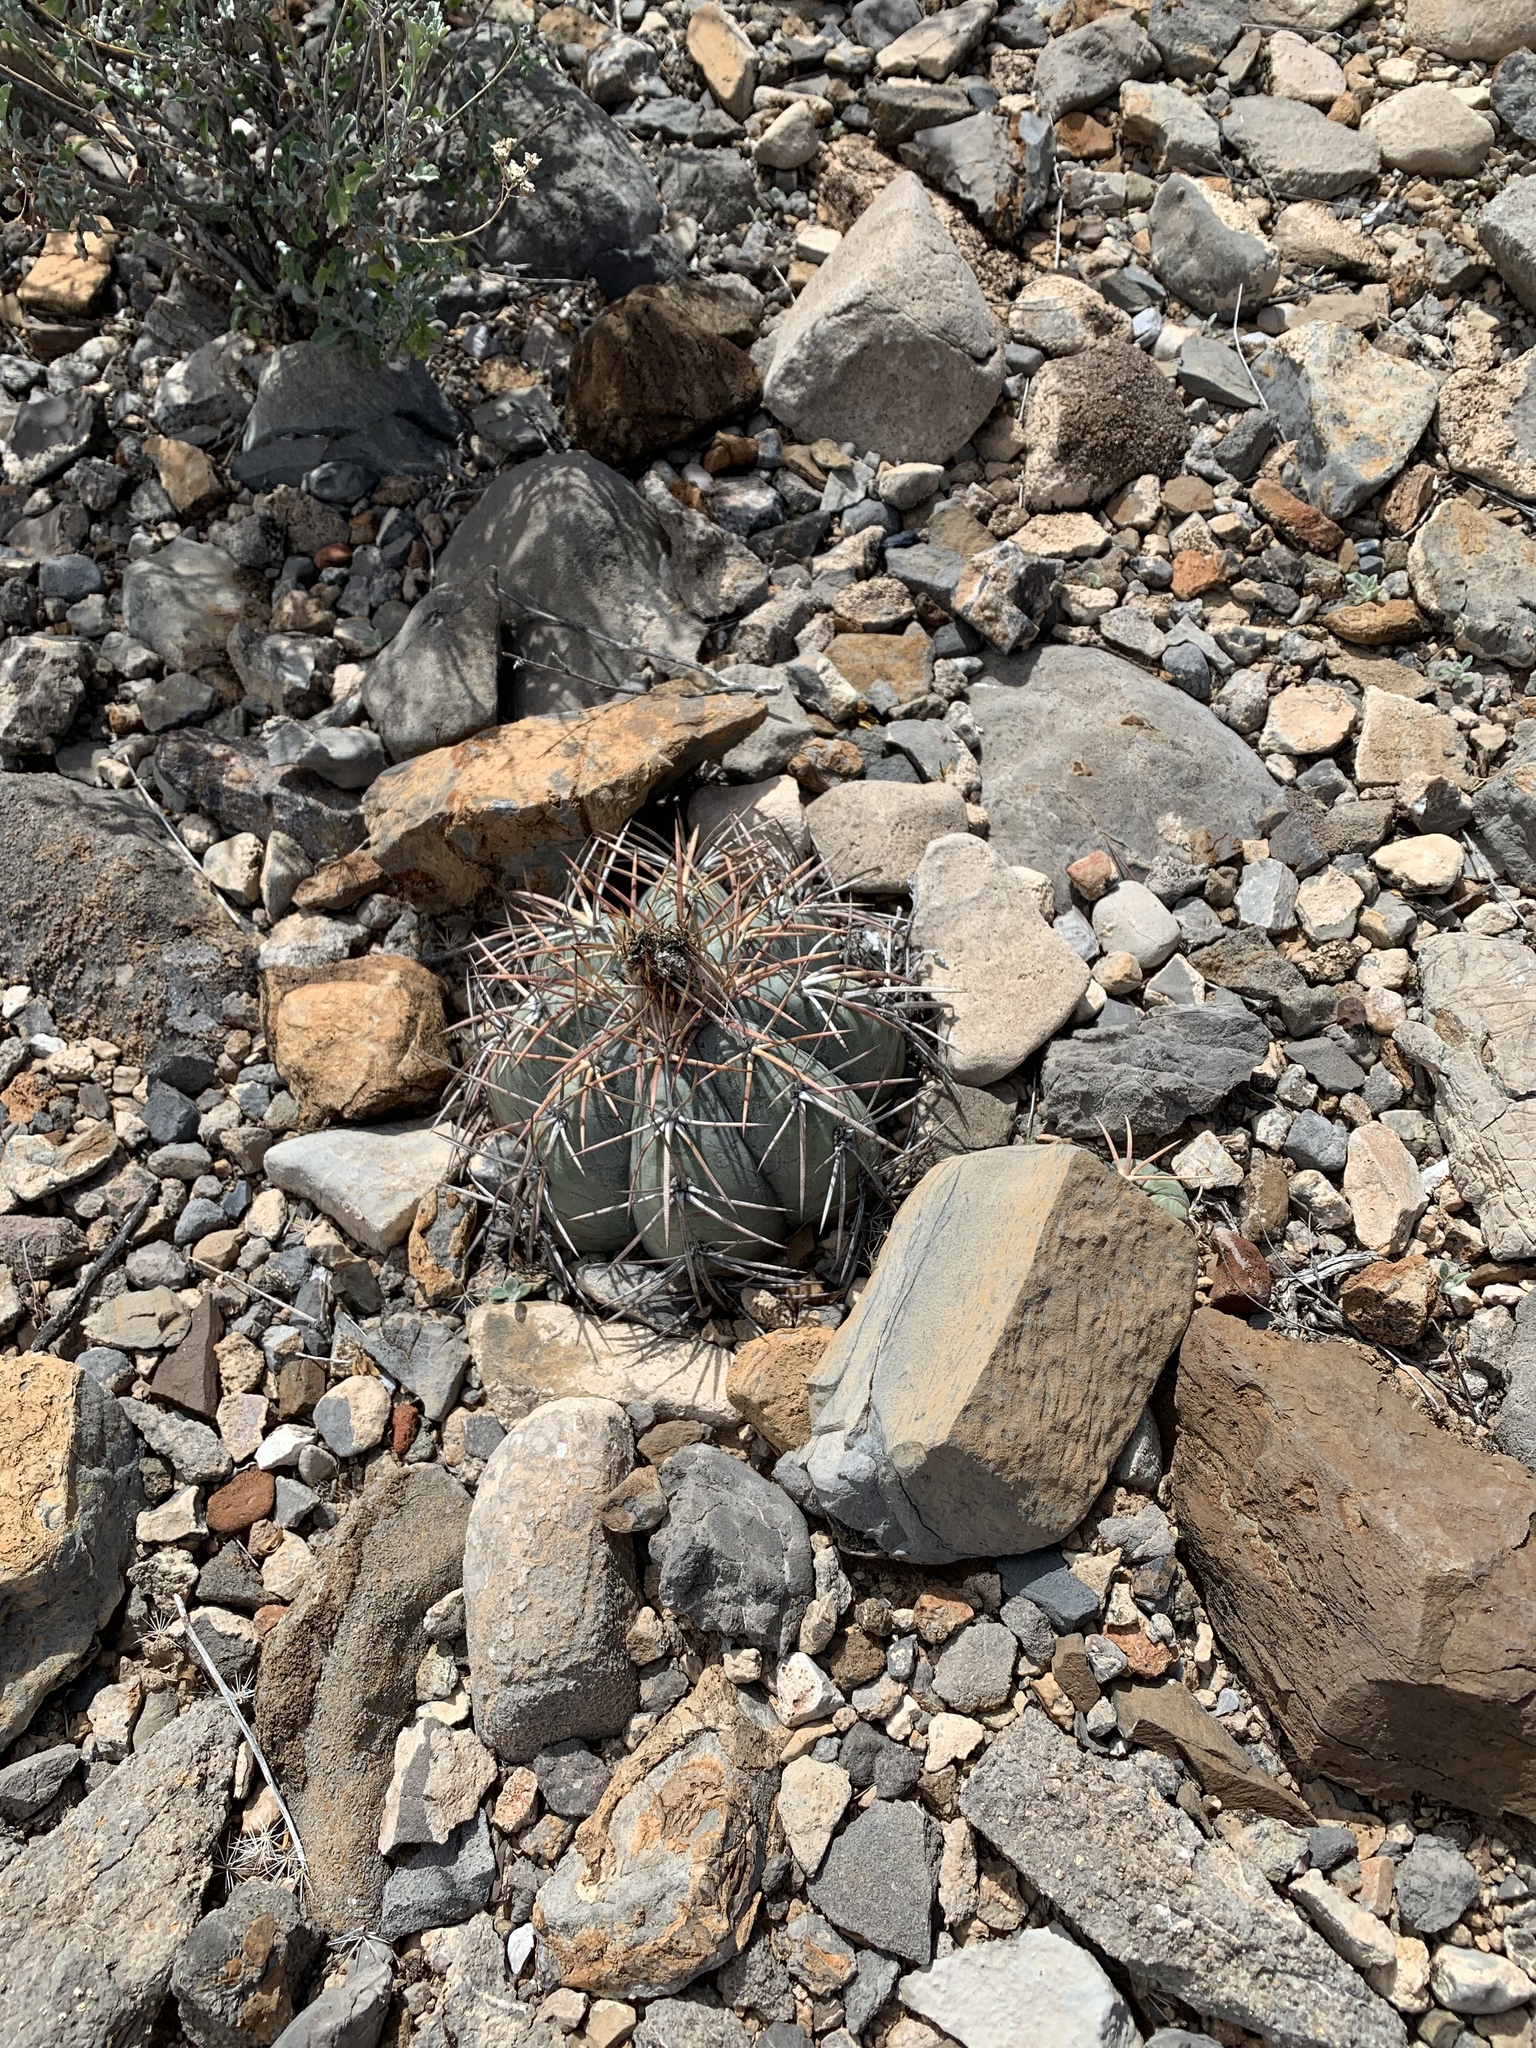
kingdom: Plantae
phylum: Tracheophyta
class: Magnoliopsida
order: Caryophyllales
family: Cactaceae
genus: Echinocactus
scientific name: Echinocactus horizonthalonius
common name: Devilshead
